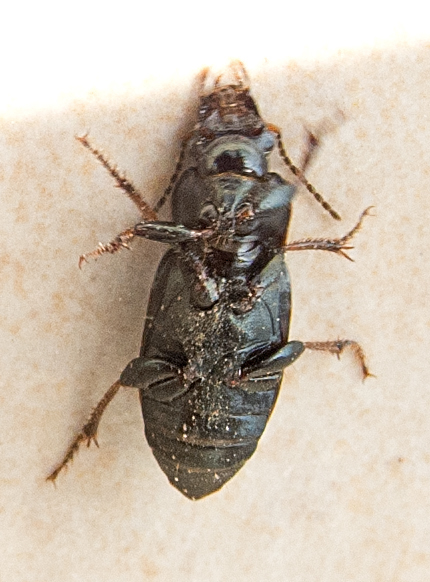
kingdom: Animalia
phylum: Arthropoda
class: Insecta
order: Coleoptera
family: Carabidae
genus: Harpalus
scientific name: Harpalus distinguendus
